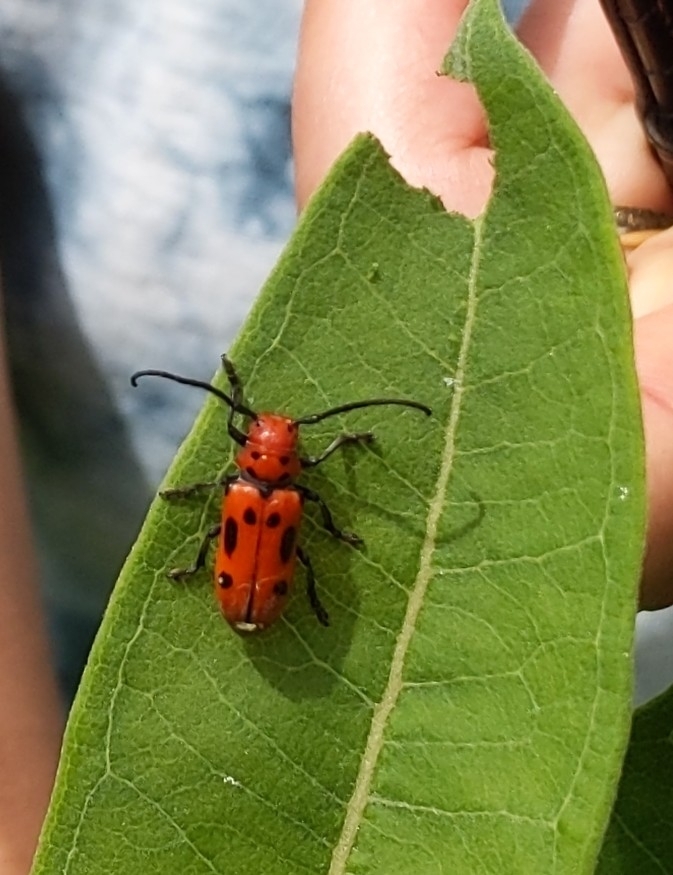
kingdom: Animalia
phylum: Arthropoda
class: Insecta
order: Coleoptera
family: Cerambycidae
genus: Tetraopes
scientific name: Tetraopes tetrophthalmus
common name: Red milkweed beetle
